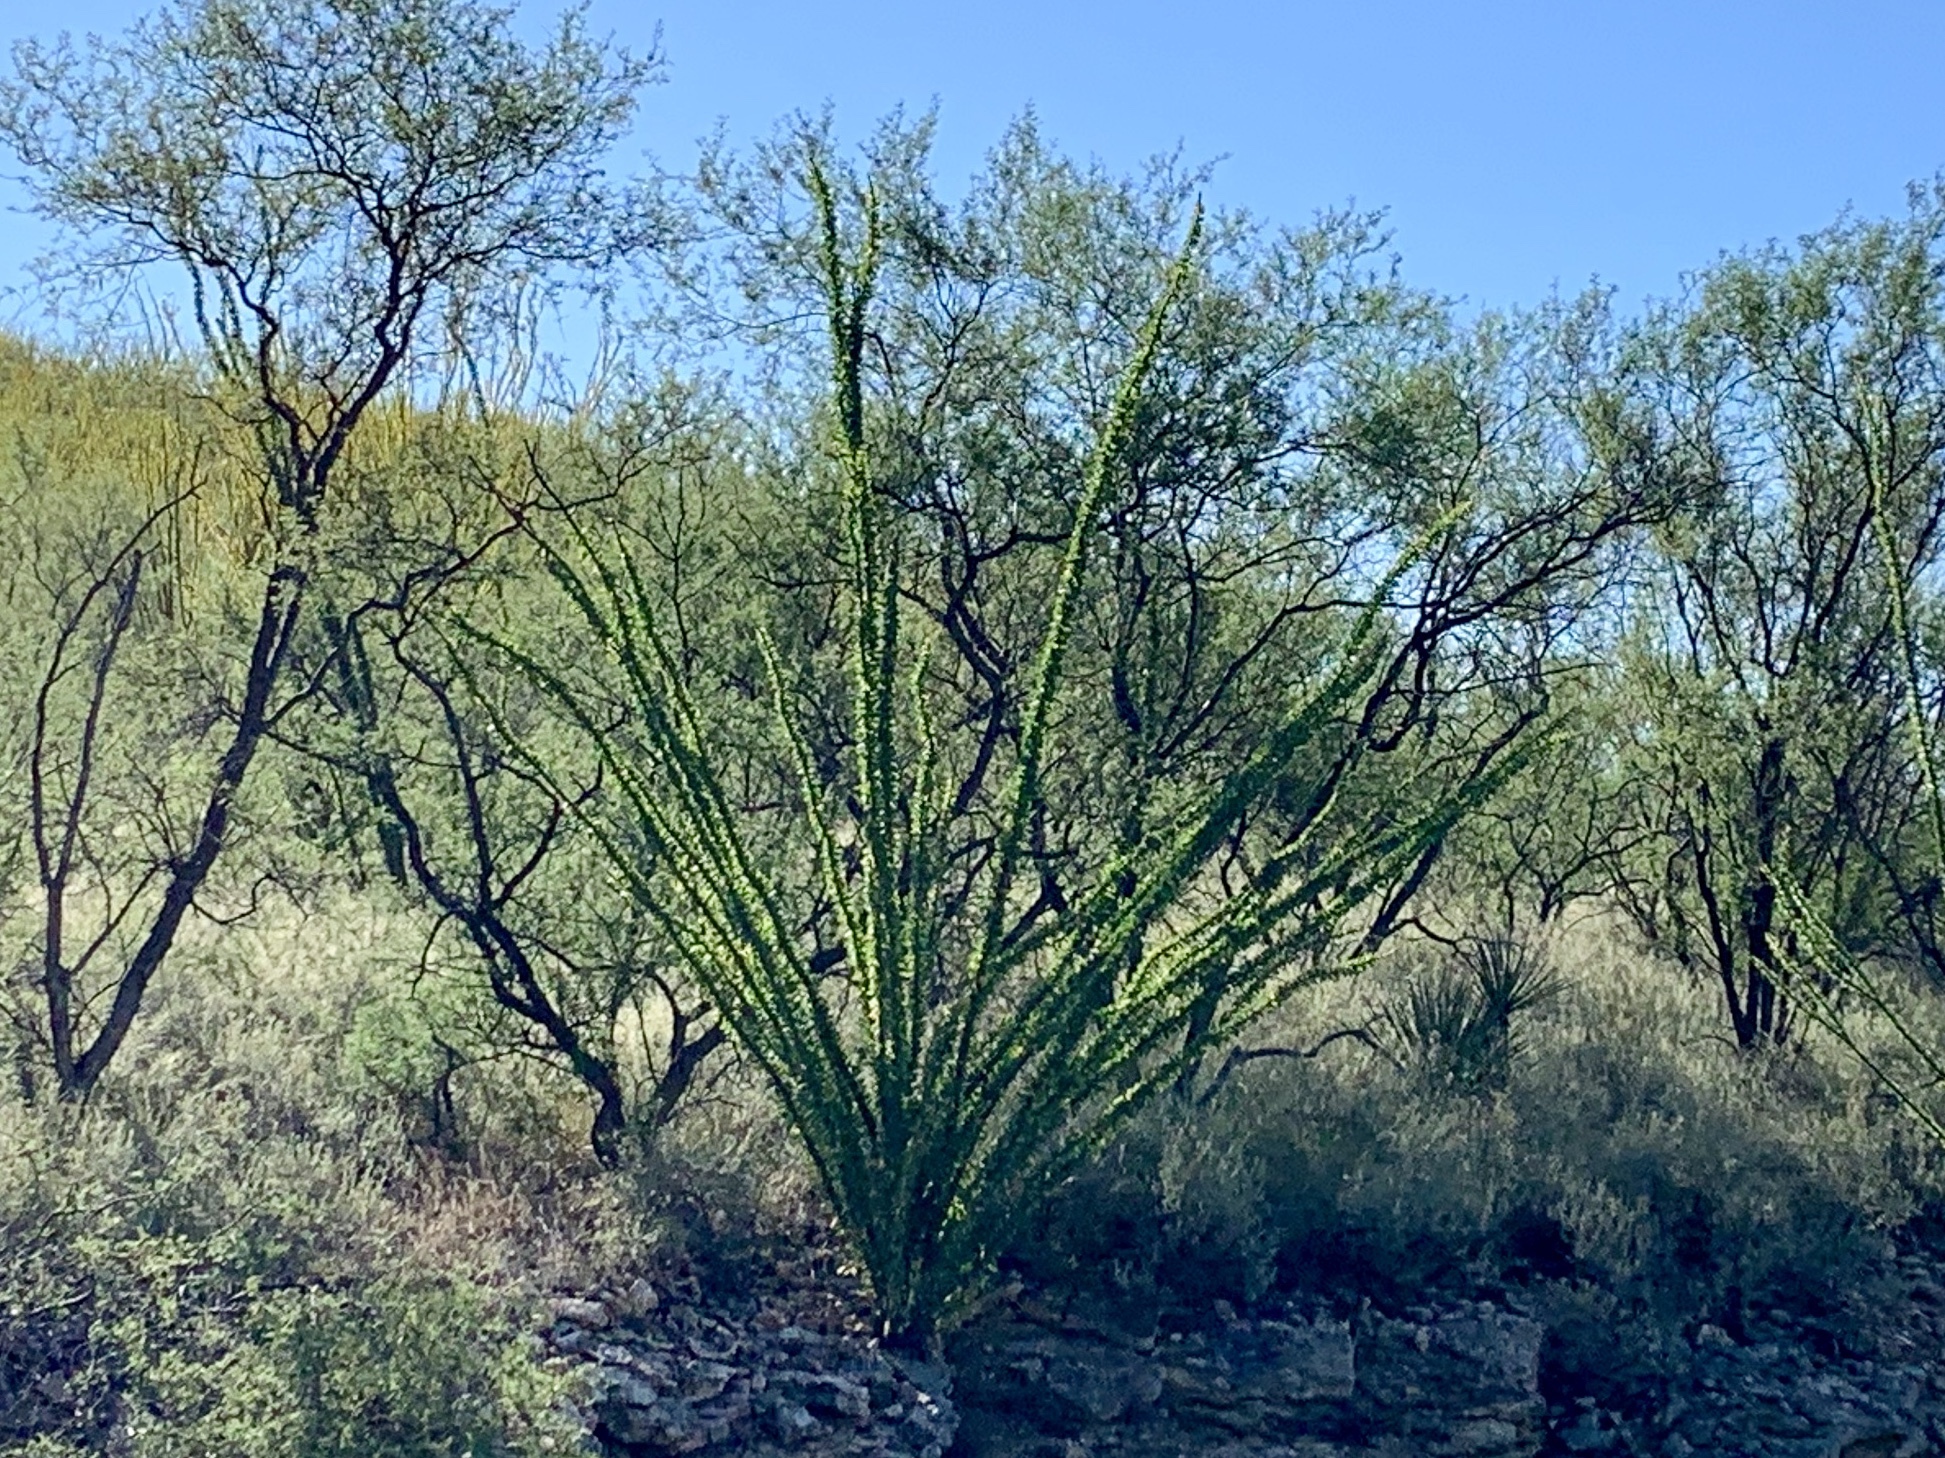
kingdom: Plantae
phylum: Tracheophyta
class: Magnoliopsida
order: Ericales
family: Fouquieriaceae
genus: Fouquieria
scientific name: Fouquieria splendens
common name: Vine-cactus
